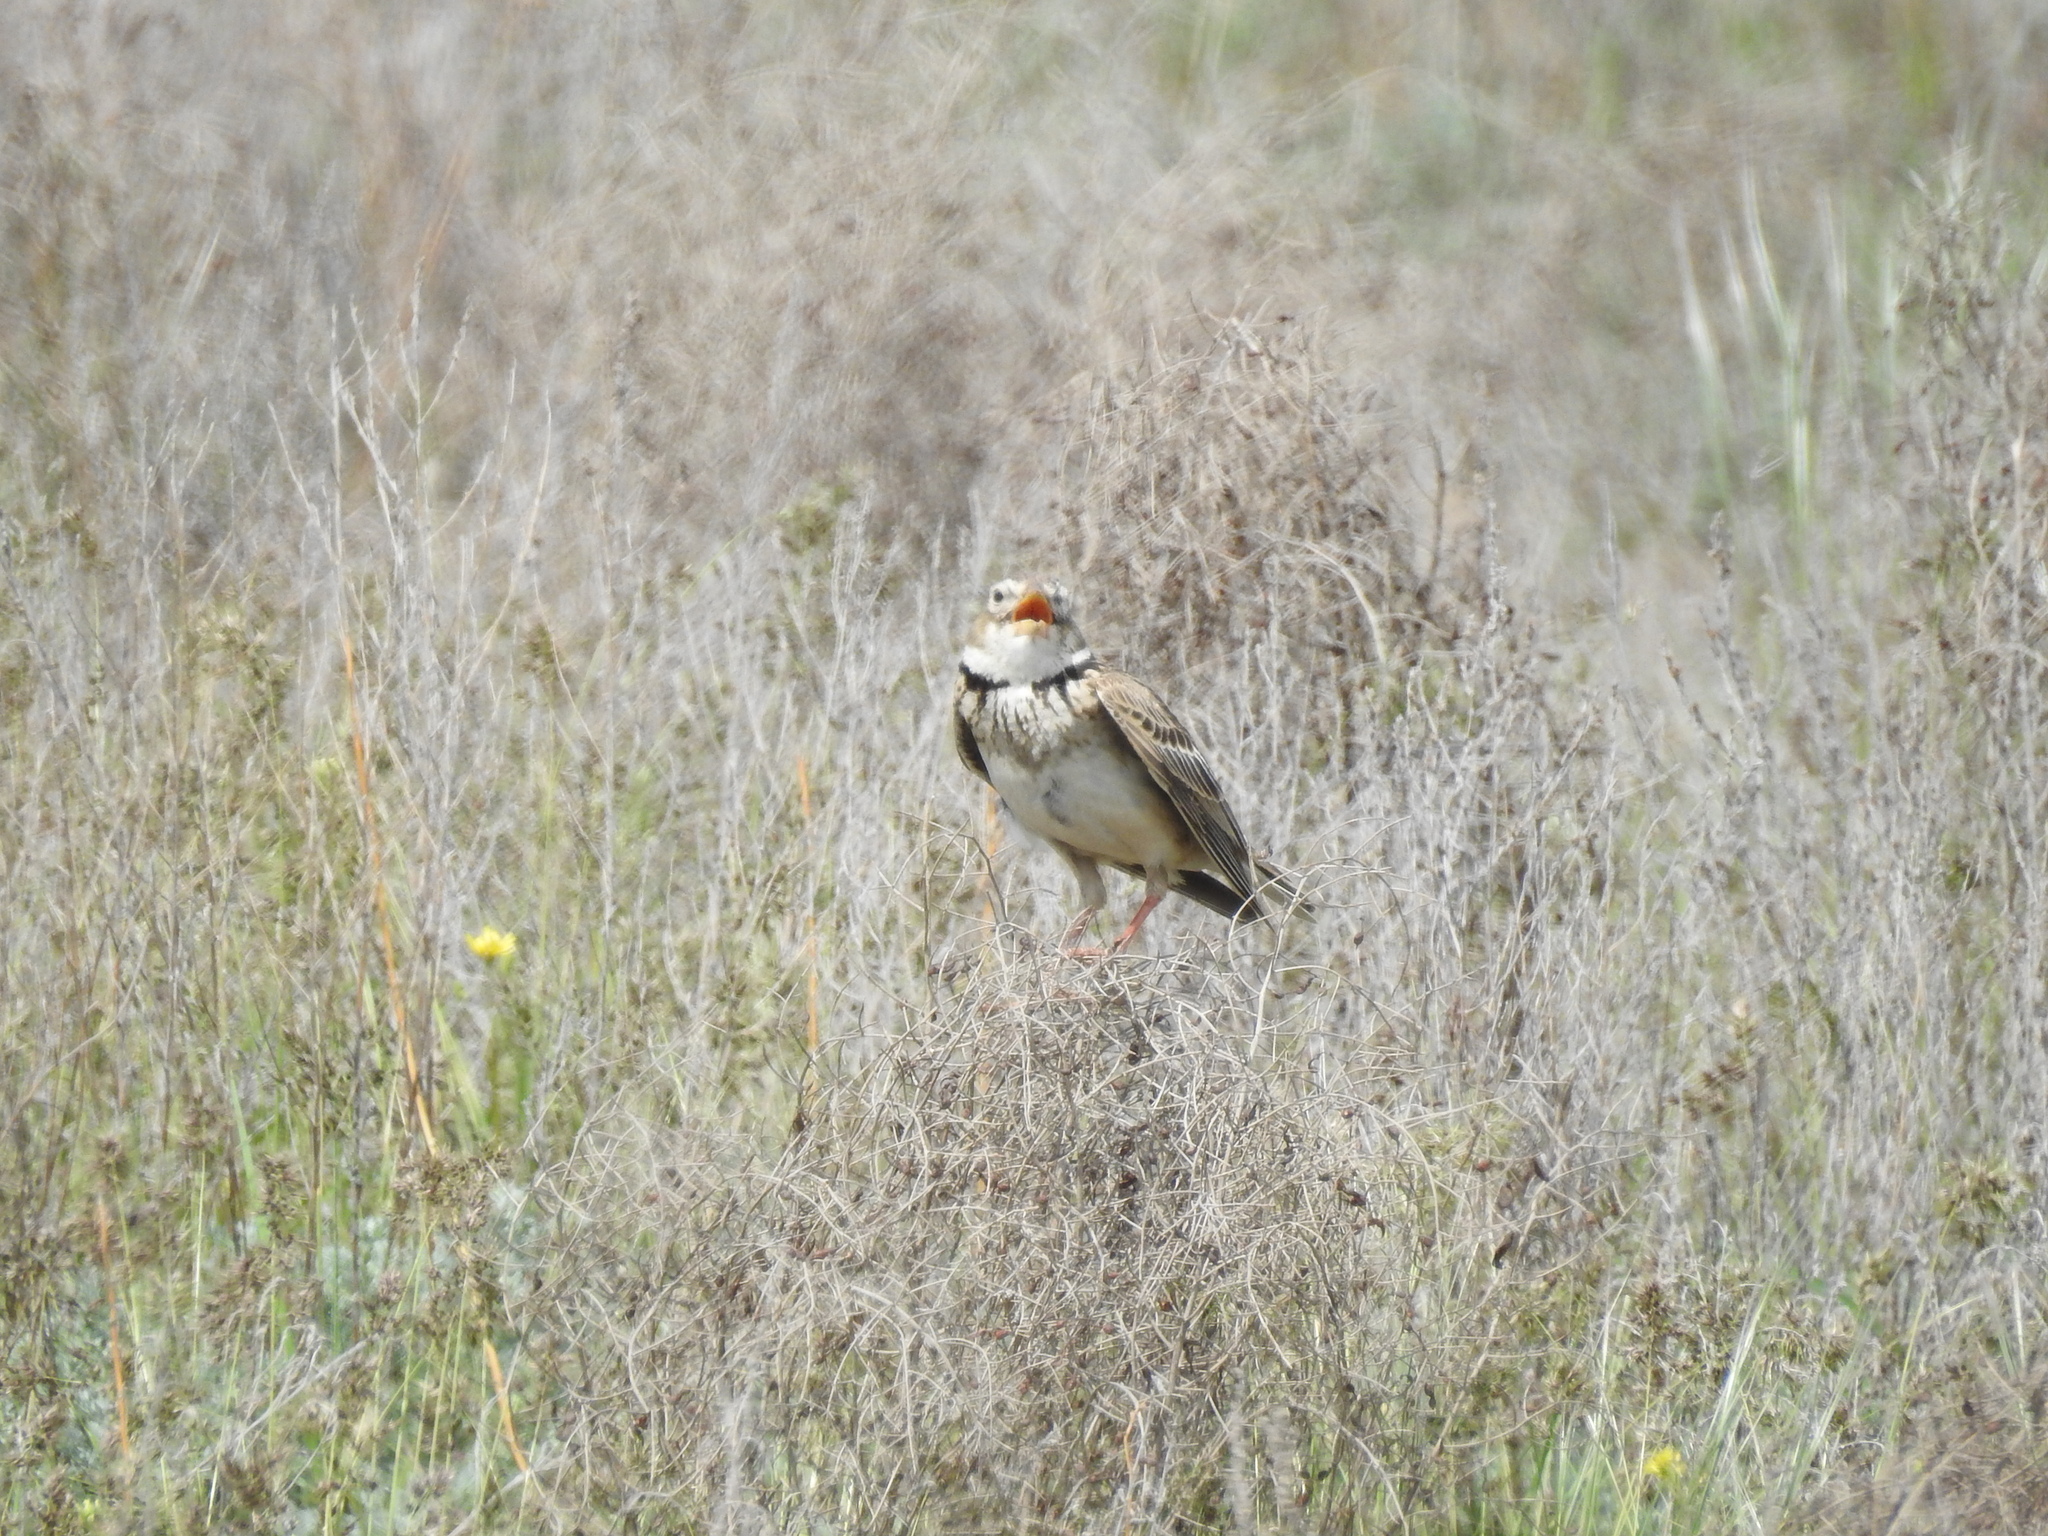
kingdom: Animalia
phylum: Chordata
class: Aves
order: Passeriformes
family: Alaudidae
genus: Melanocorypha
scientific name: Melanocorypha calandra
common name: Calandra lark
